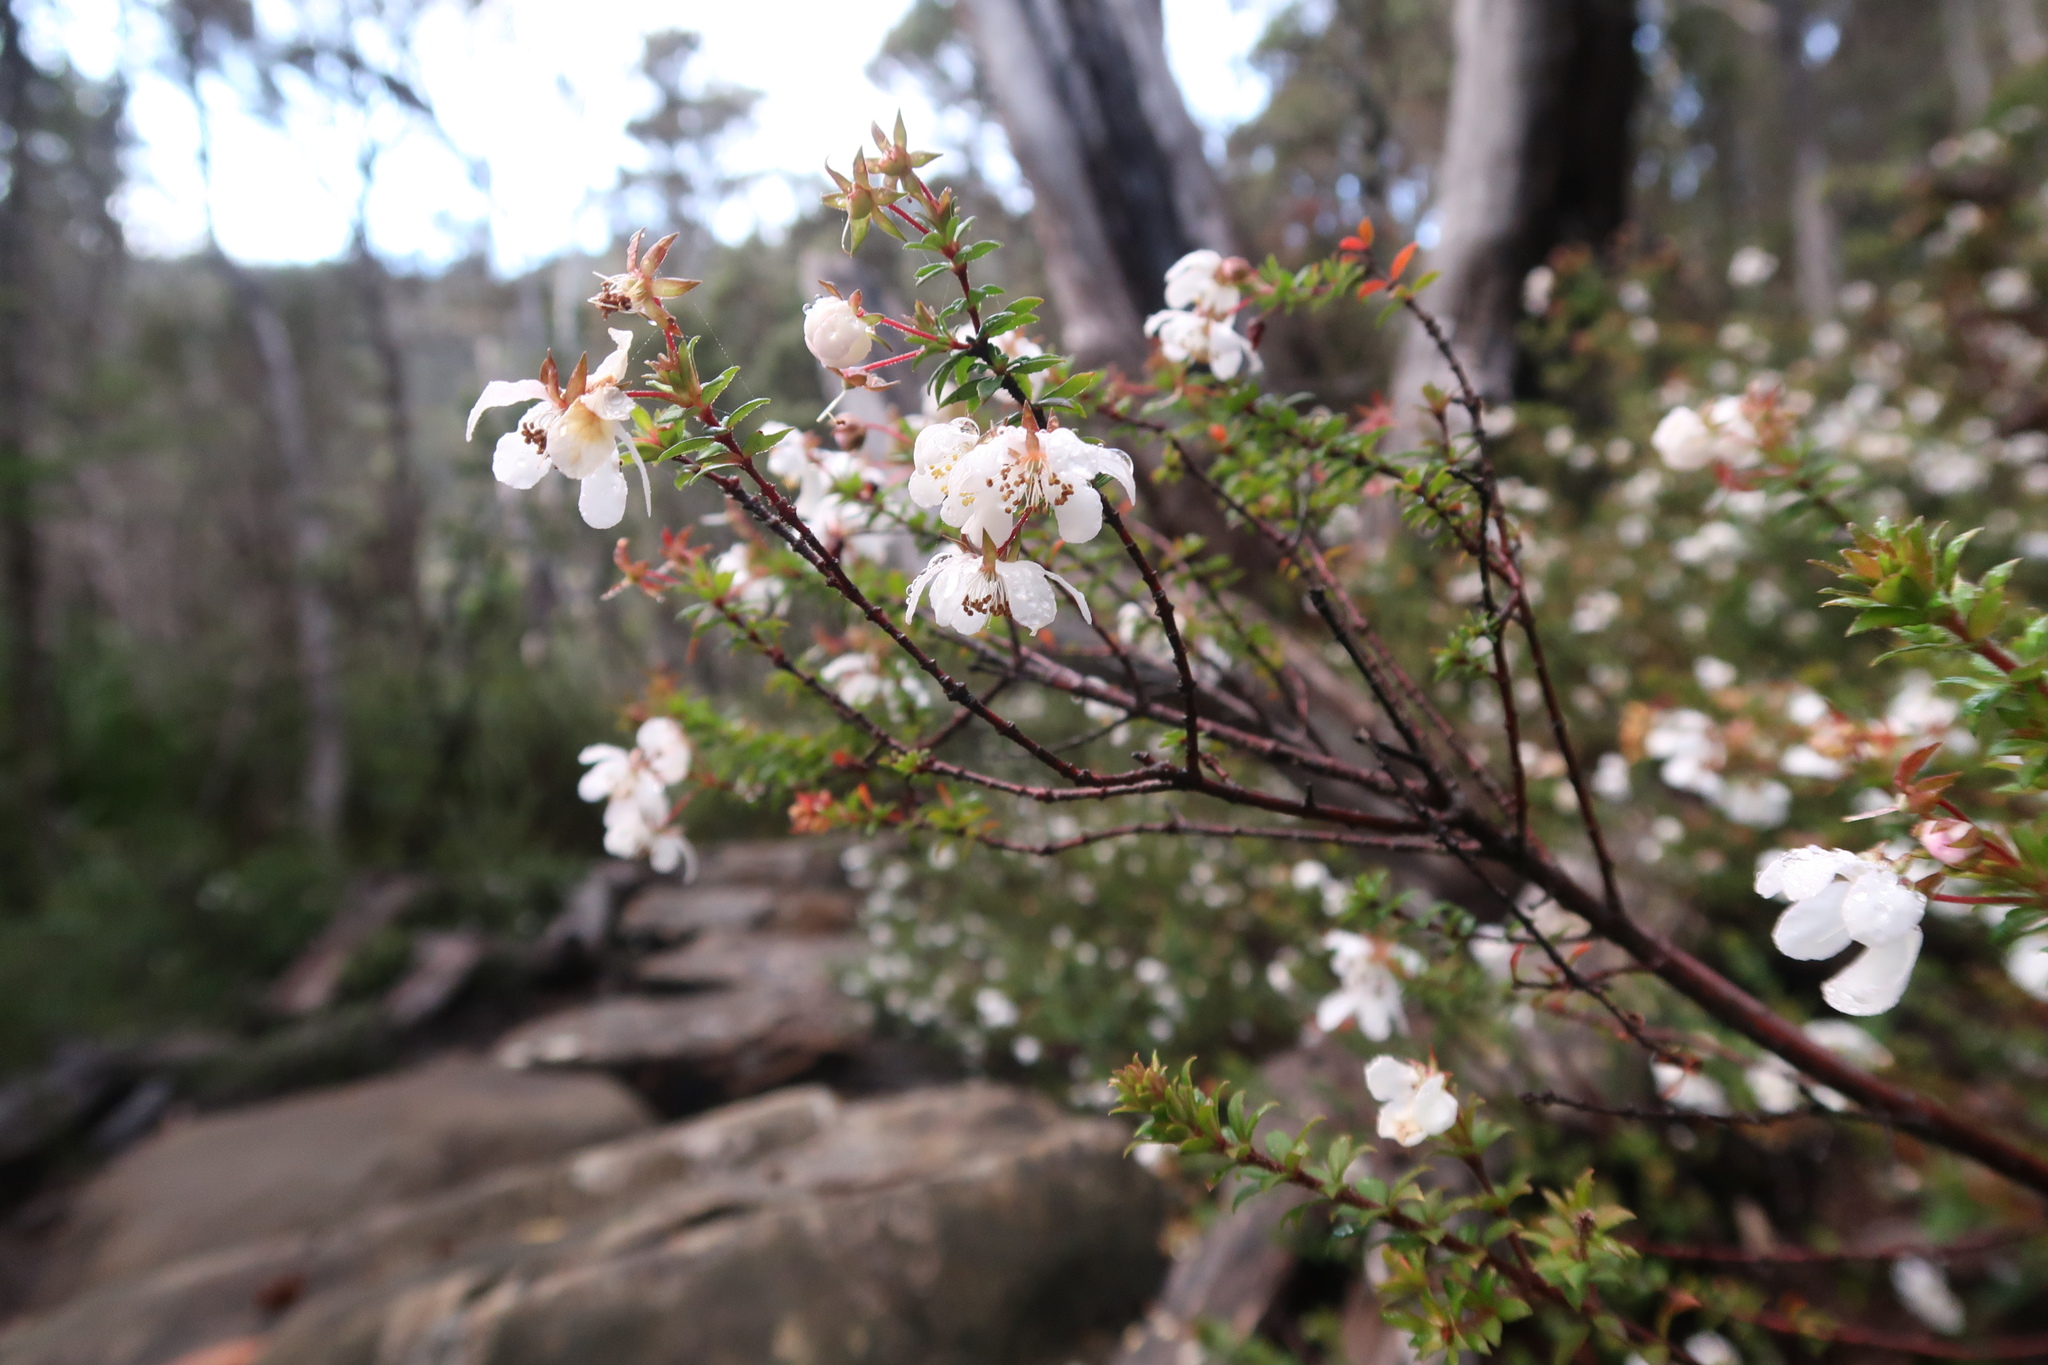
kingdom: Plantae
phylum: Tracheophyta
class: Magnoliopsida
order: Oxalidales
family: Cunoniaceae
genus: Bauera
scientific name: Bauera rubioides
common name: River-rose
